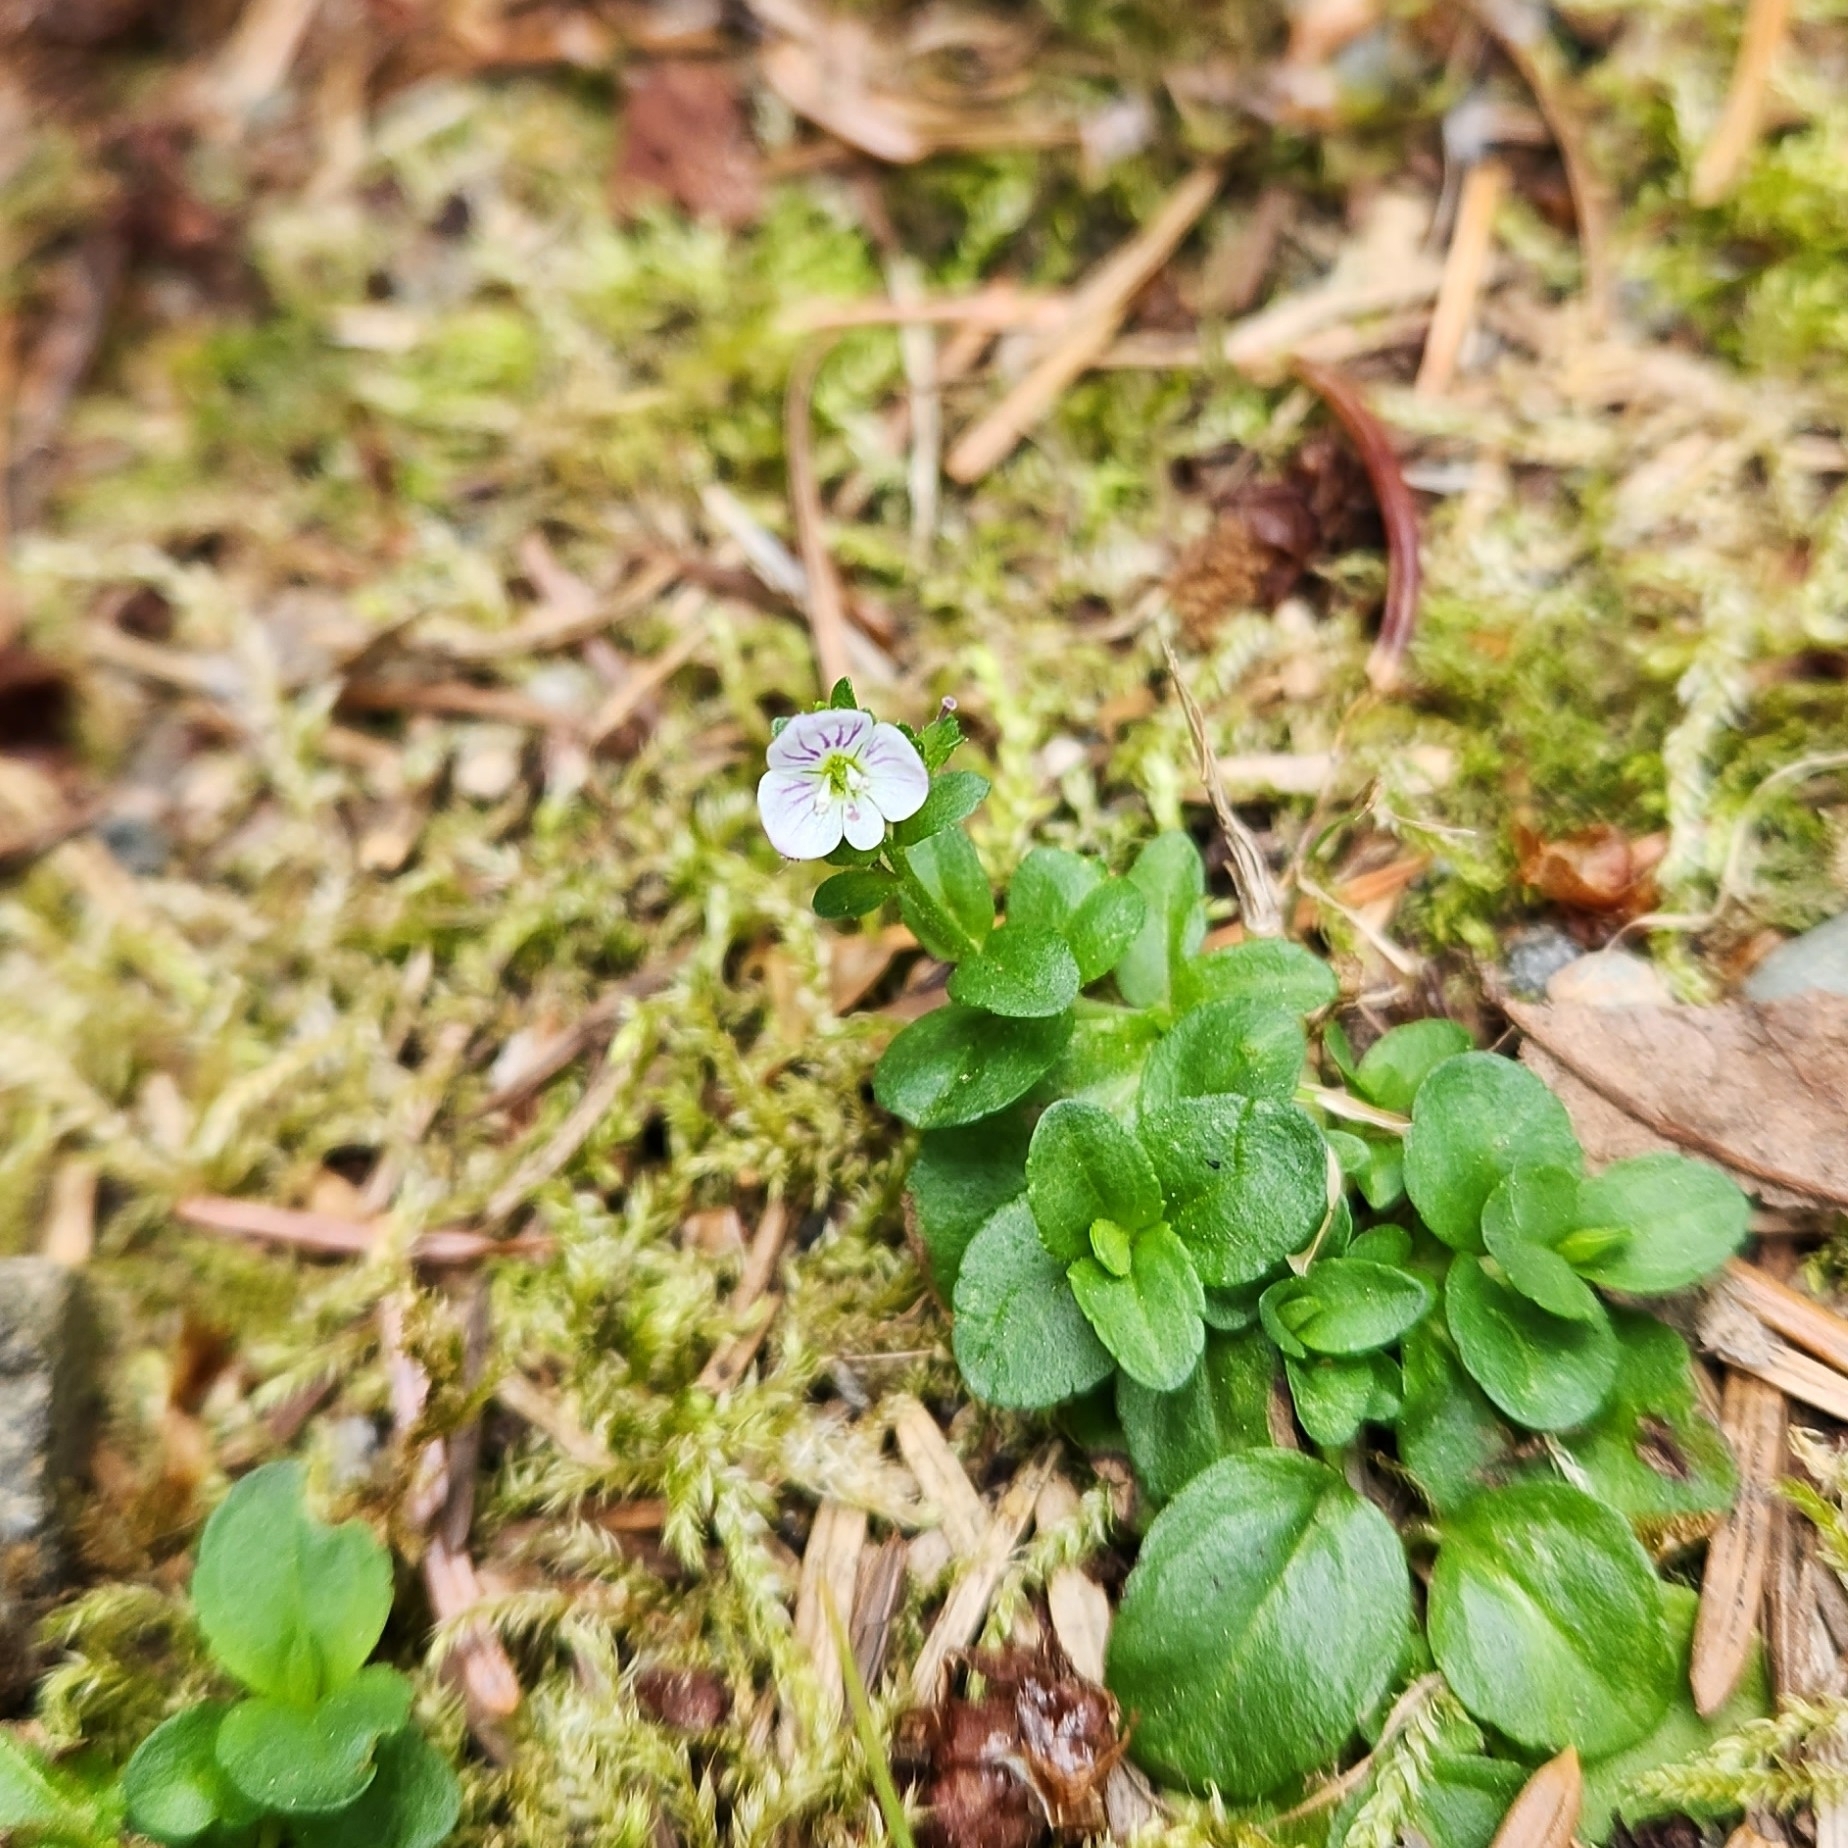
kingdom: Plantae
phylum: Tracheophyta
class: Magnoliopsida
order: Lamiales
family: Plantaginaceae
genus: Veronica
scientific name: Veronica serpyllifolia
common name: Thyme-leaved speedwell
